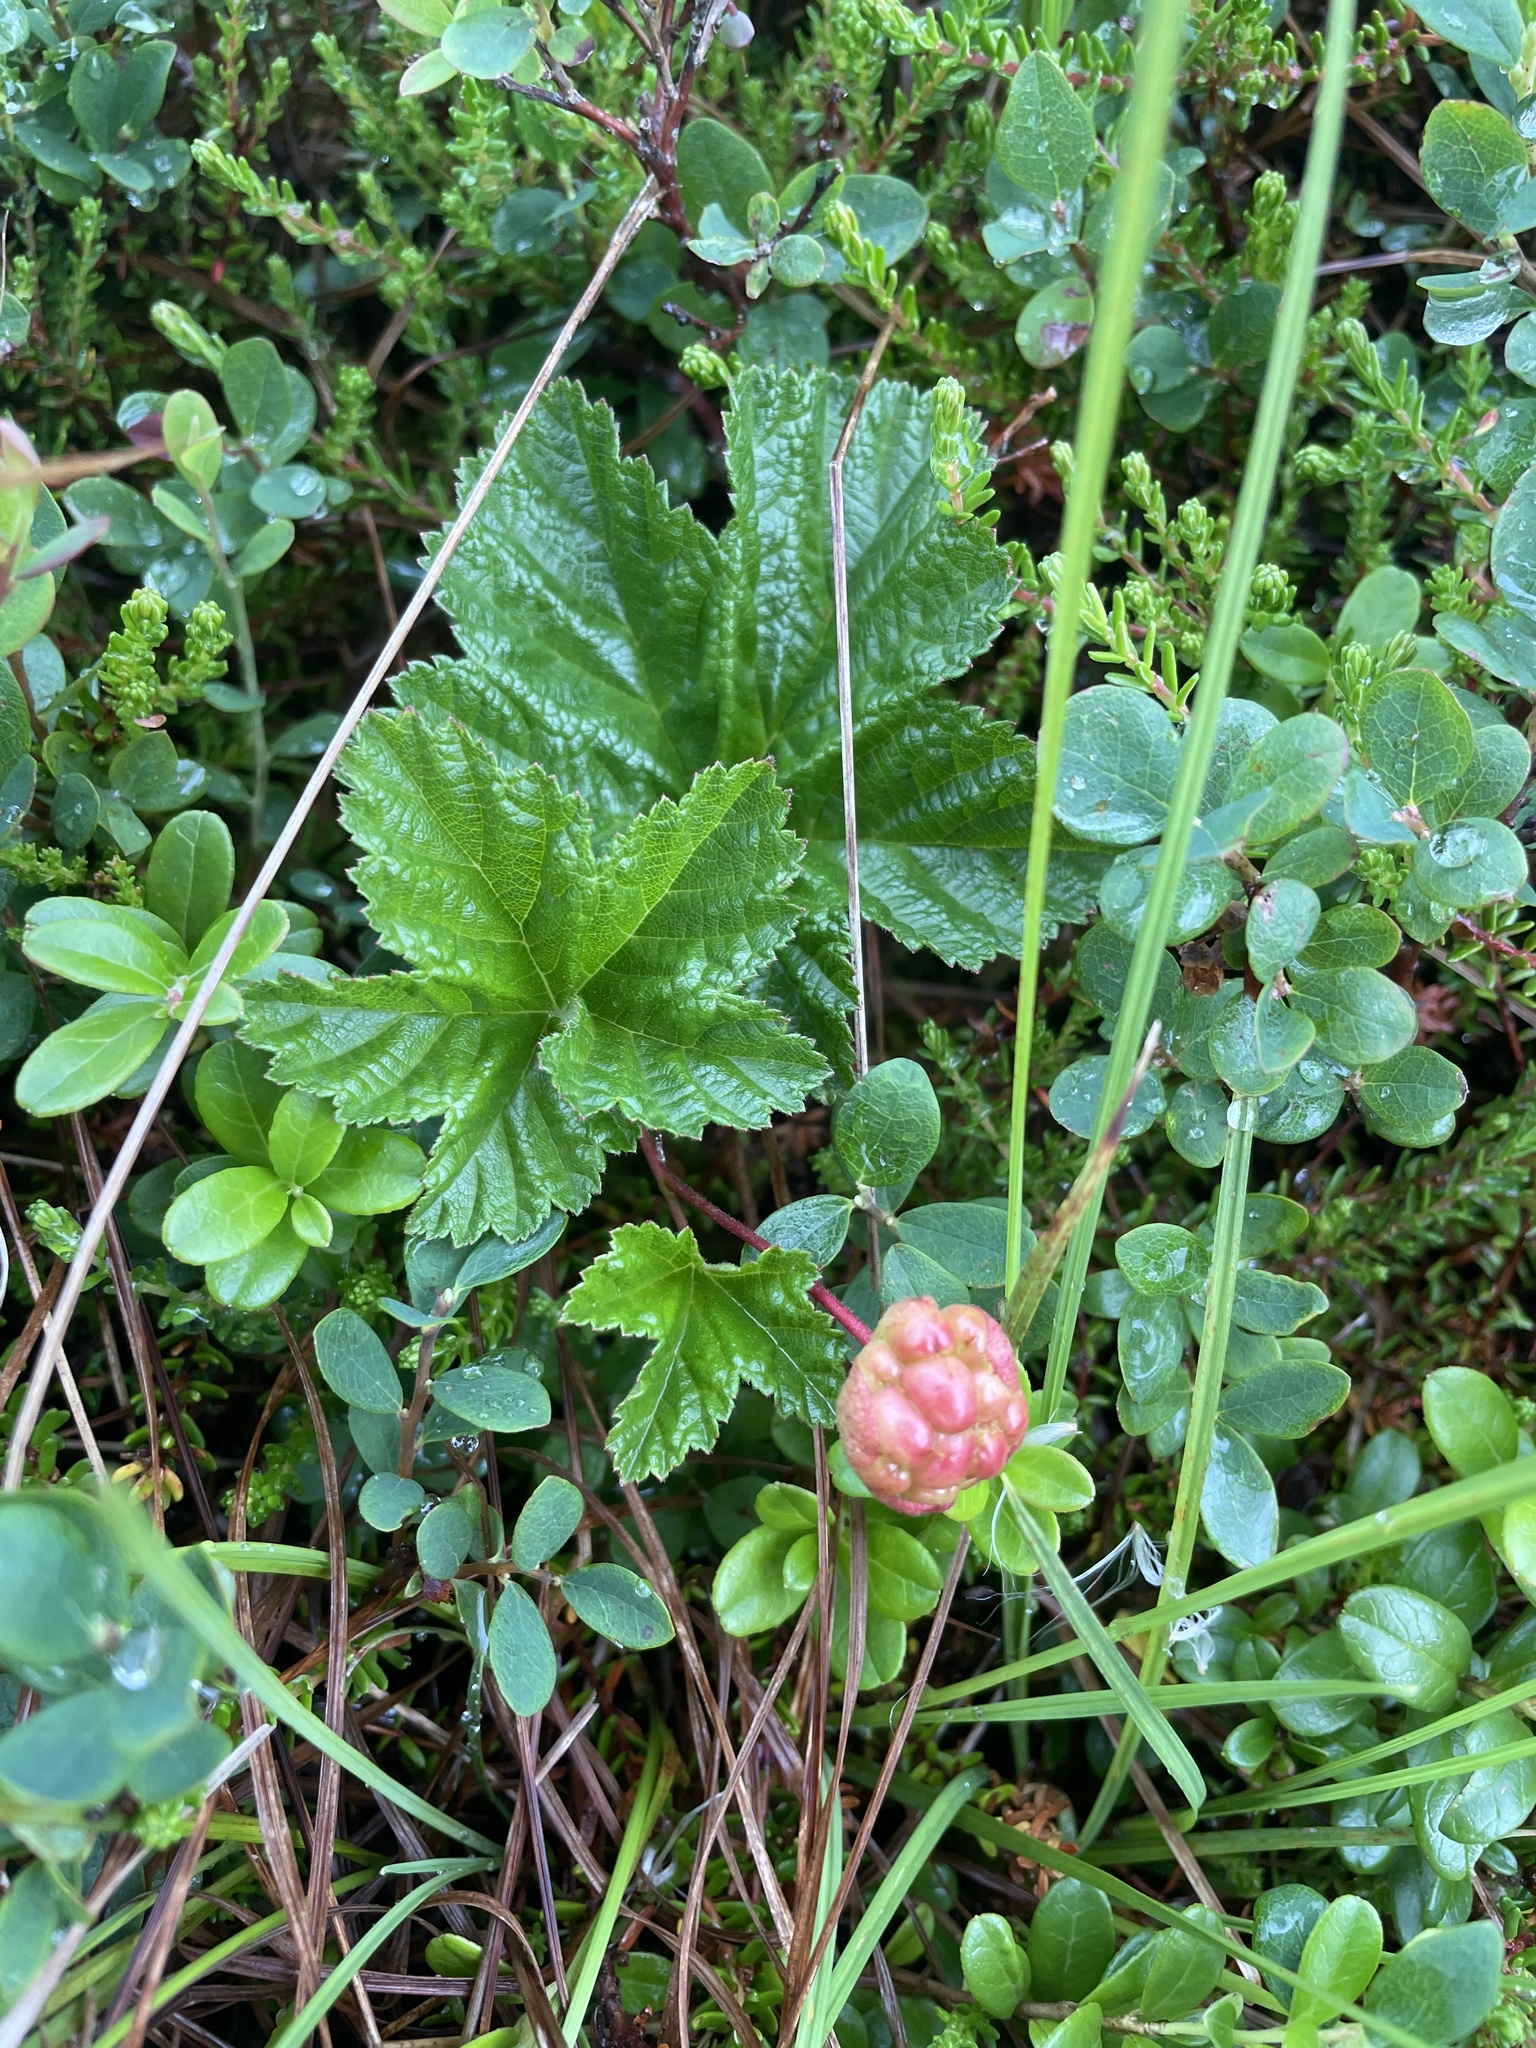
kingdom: Plantae
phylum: Tracheophyta
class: Magnoliopsida
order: Rosales
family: Rosaceae
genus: Rubus
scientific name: Rubus chamaemorus
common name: Cloudberry
